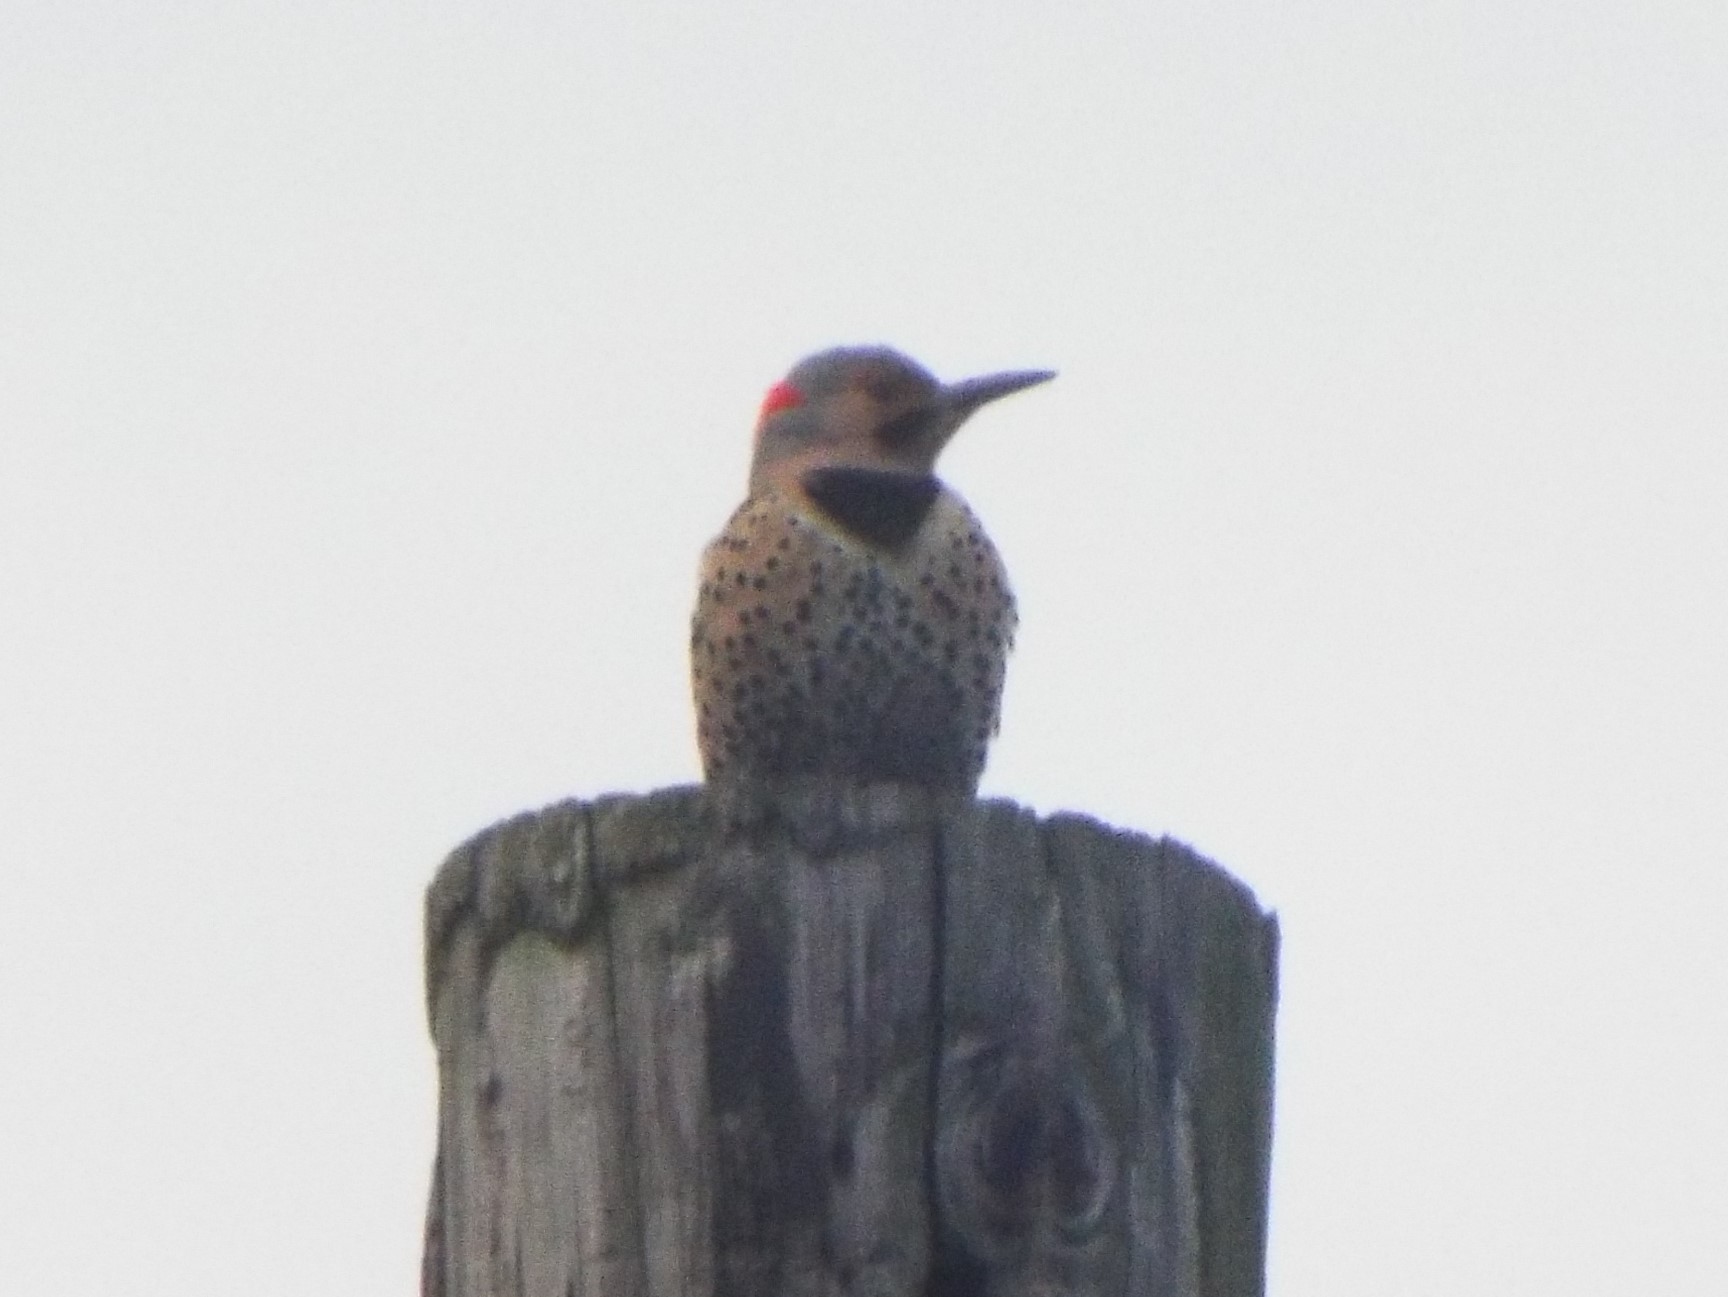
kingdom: Animalia
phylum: Chordata
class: Aves
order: Piciformes
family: Picidae
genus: Colaptes
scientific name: Colaptes auratus
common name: Northern flicker
